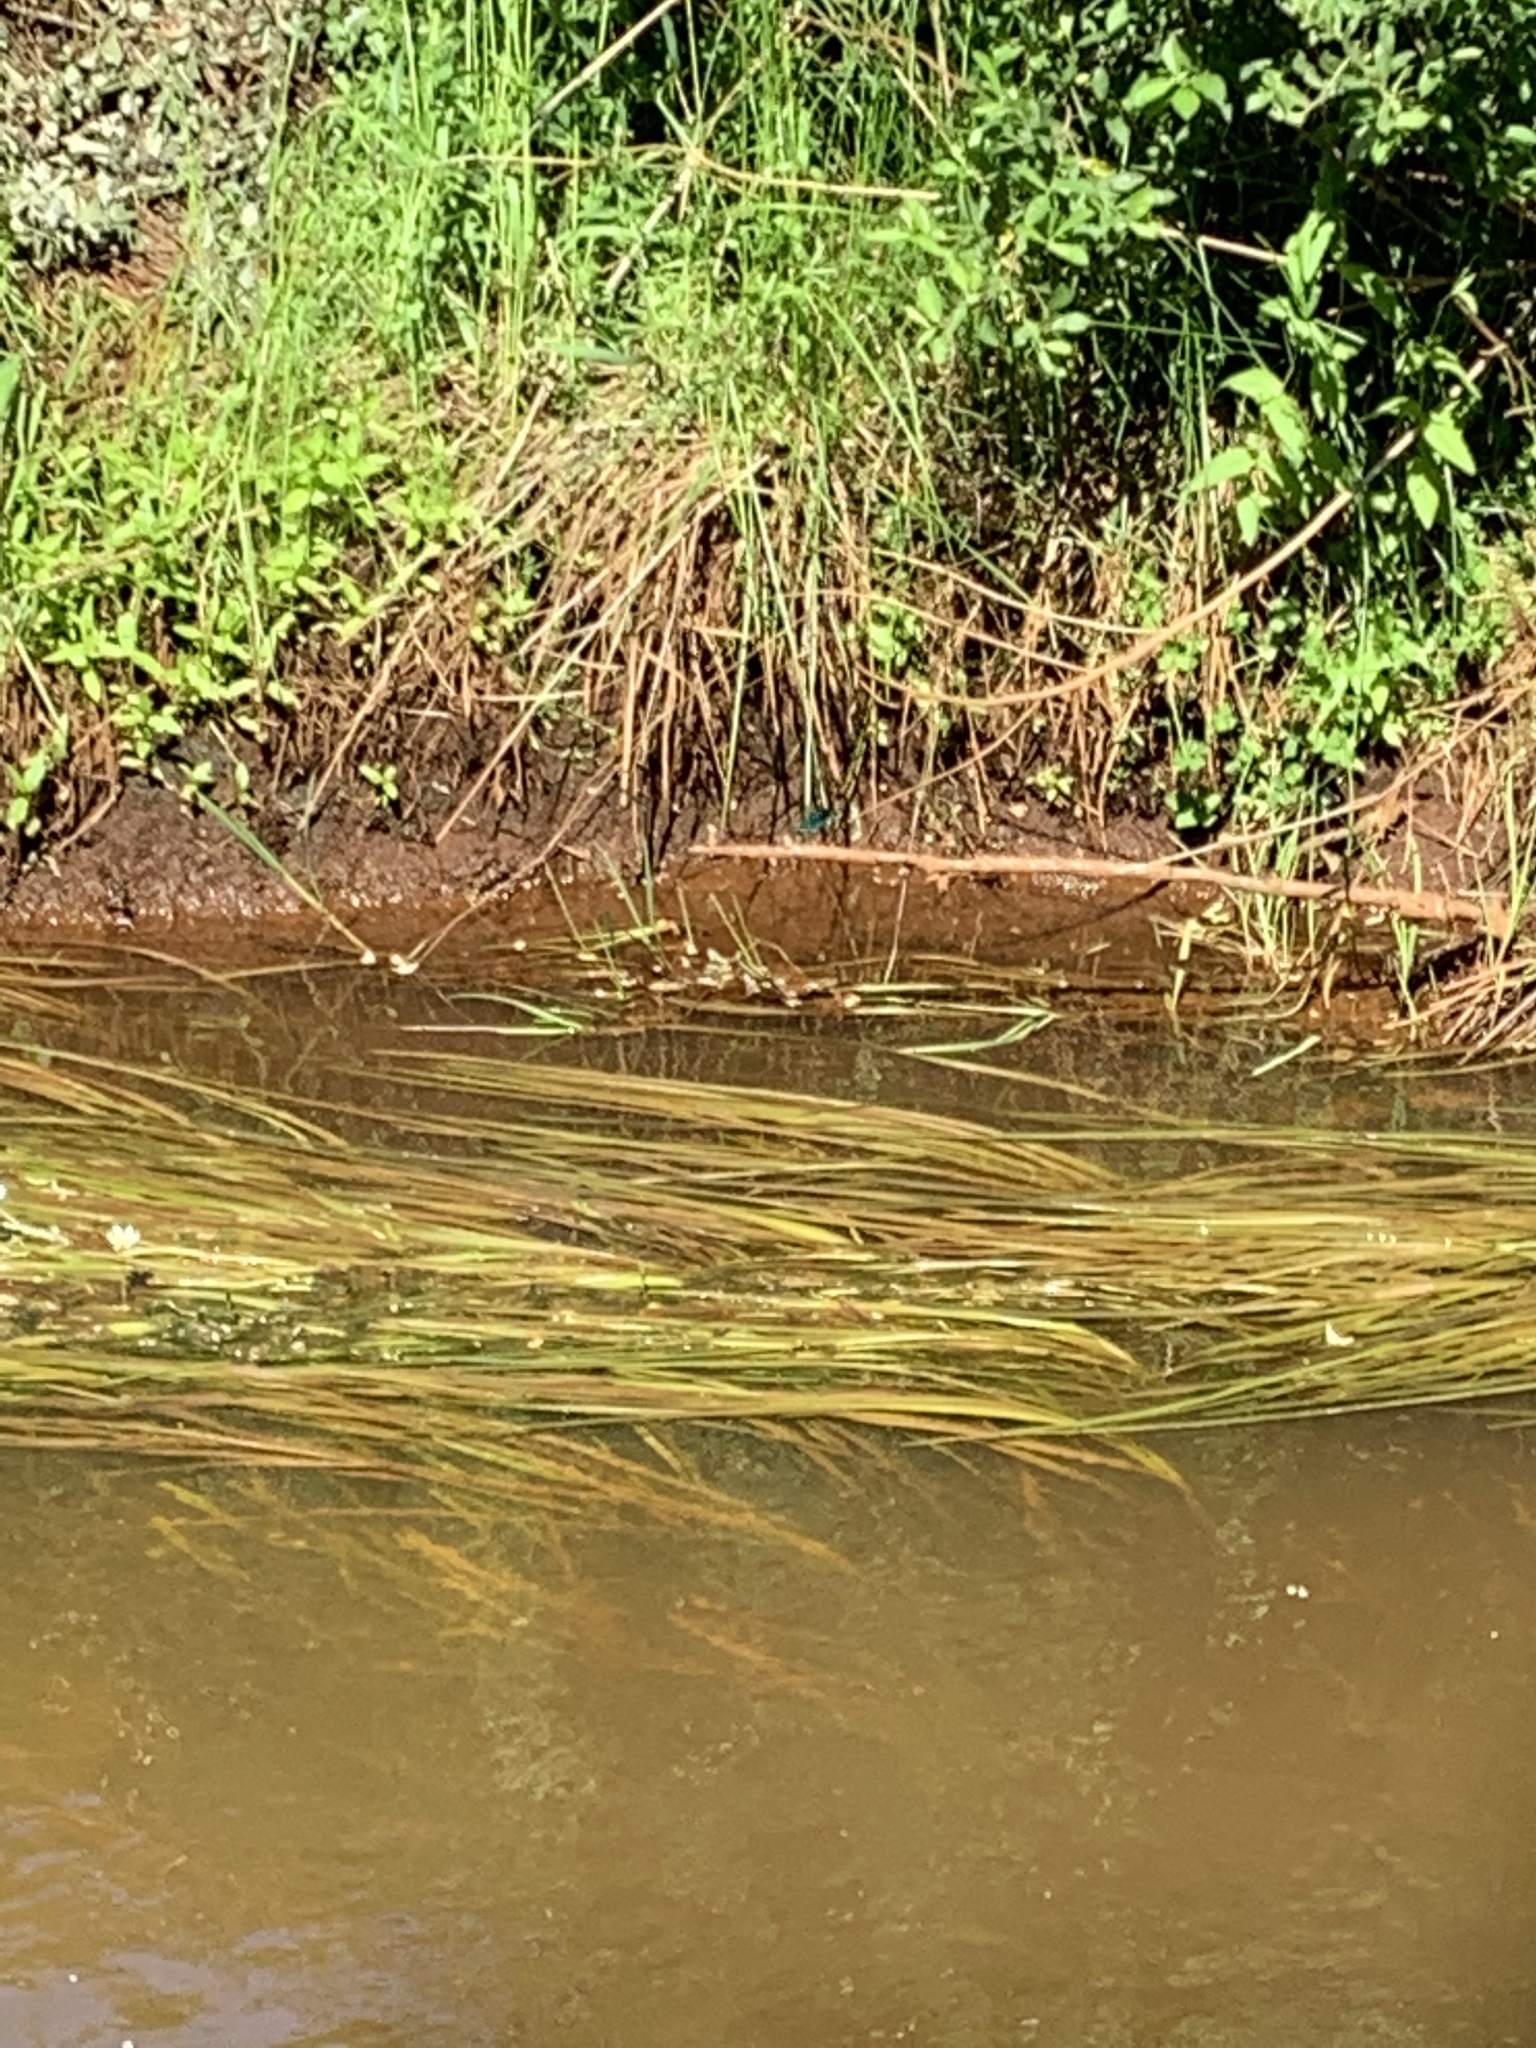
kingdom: Animalia
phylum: Arthropoda
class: Insecta
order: Odonata
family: Calopterygidae
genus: Calopteryx
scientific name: Calopteryx splendens
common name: Banded demoiselle
